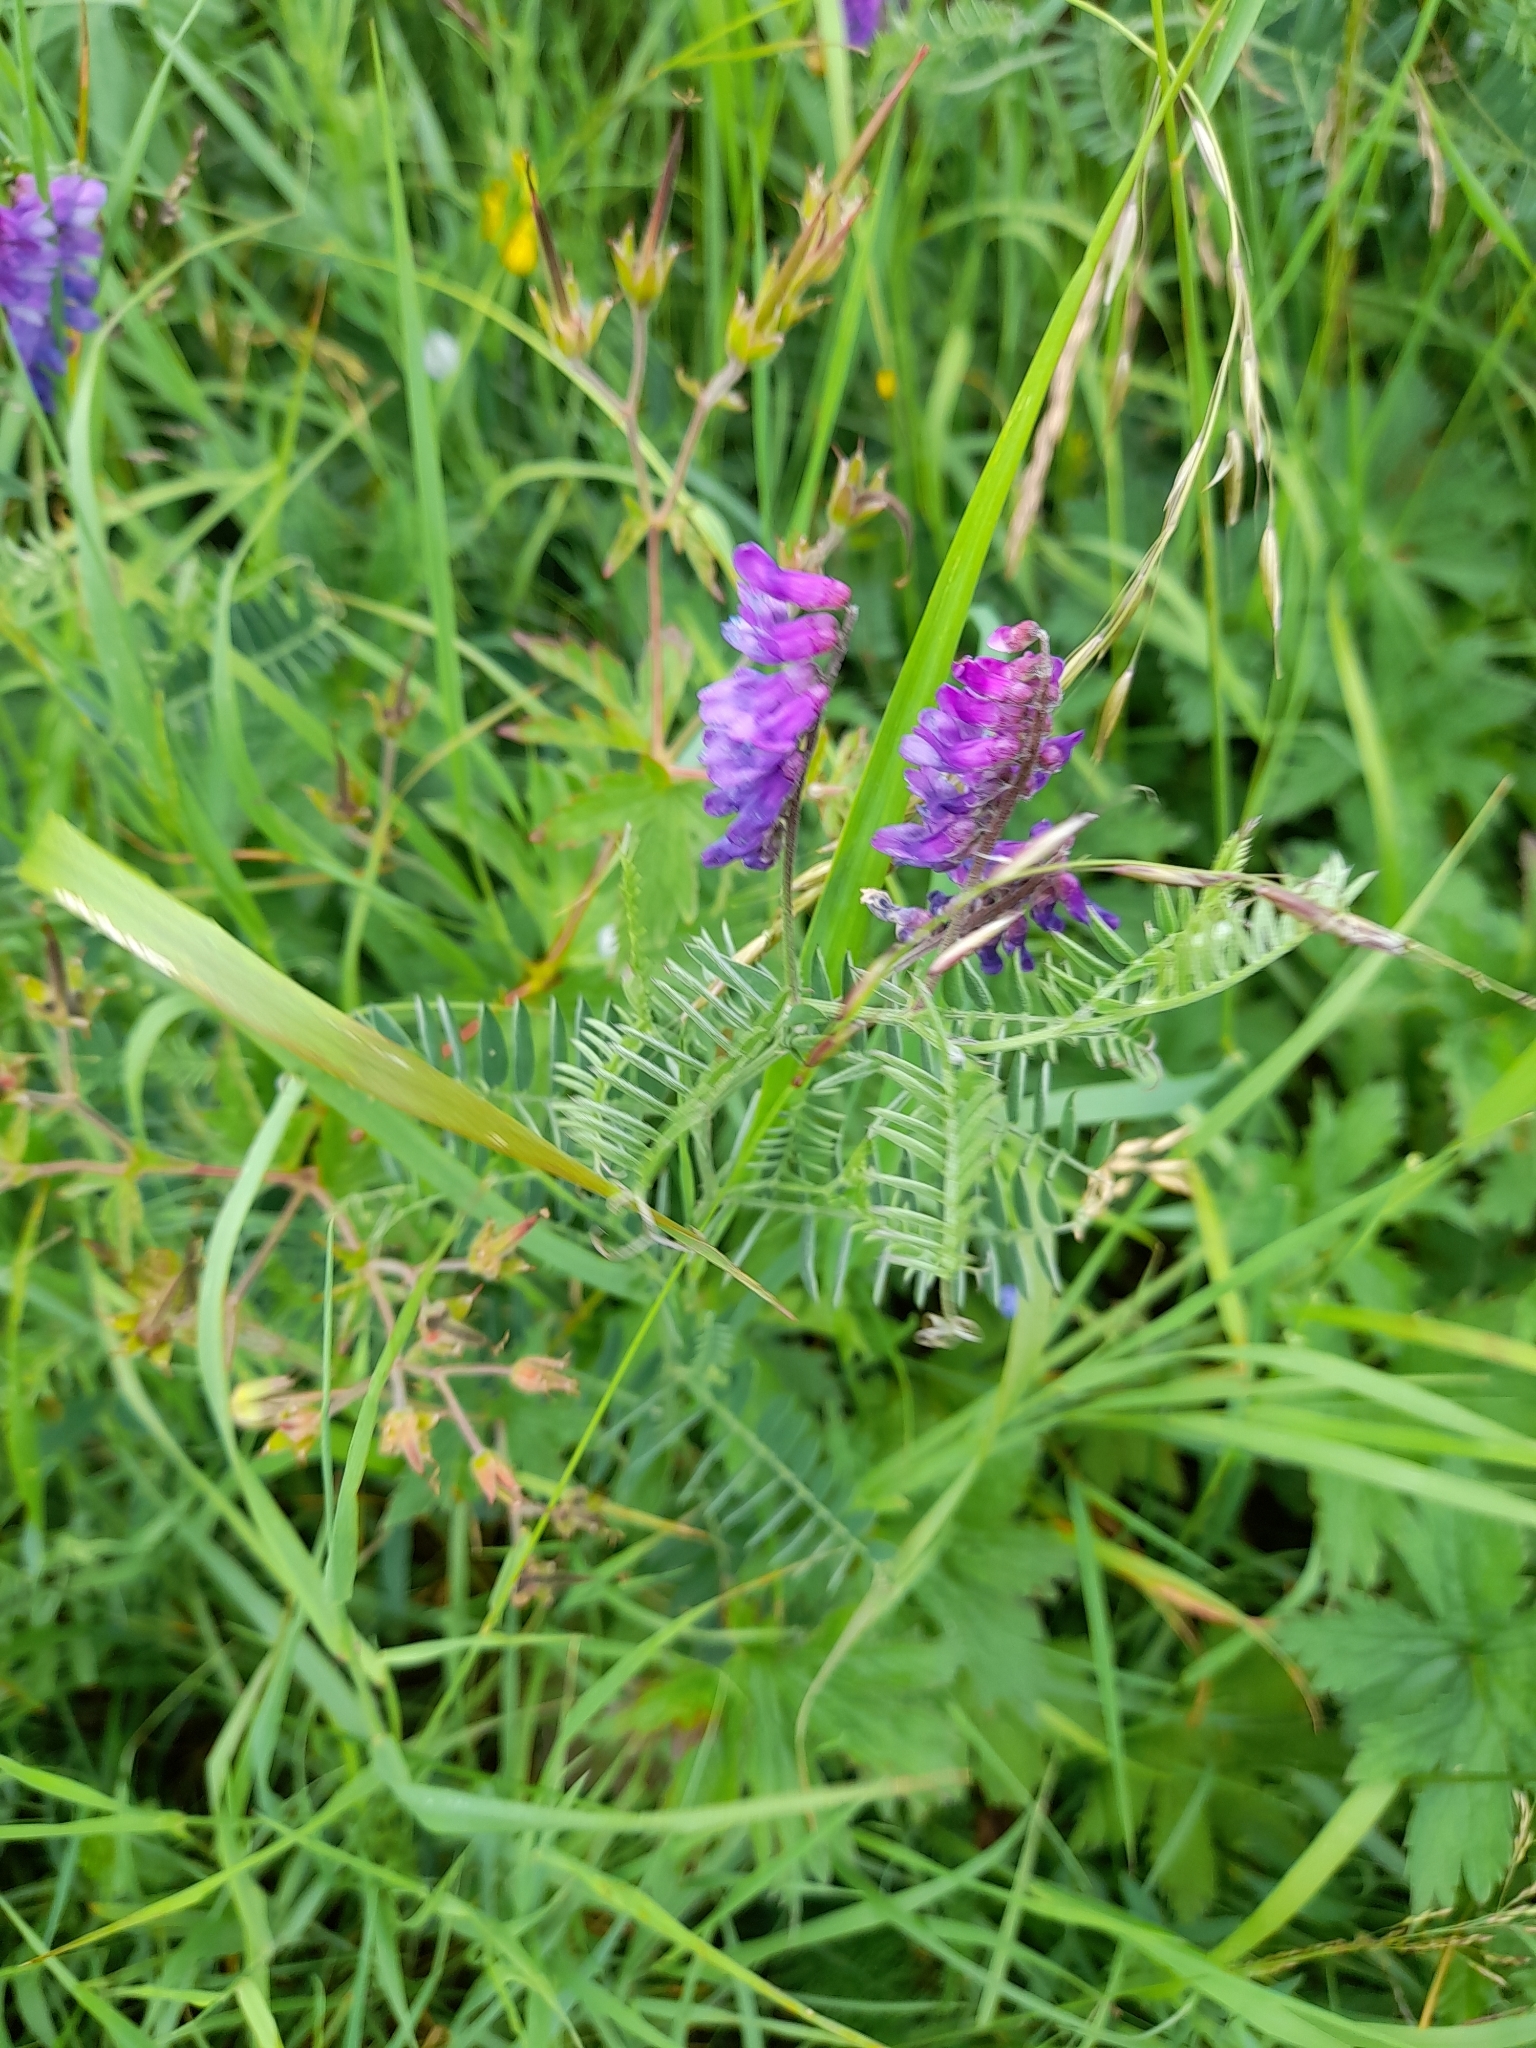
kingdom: Plantae
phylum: Tracheophyta
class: Magnoliopsida
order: Fabales
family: Fabaceae
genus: Vicia
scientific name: Vicia cracca
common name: Bird vetch
